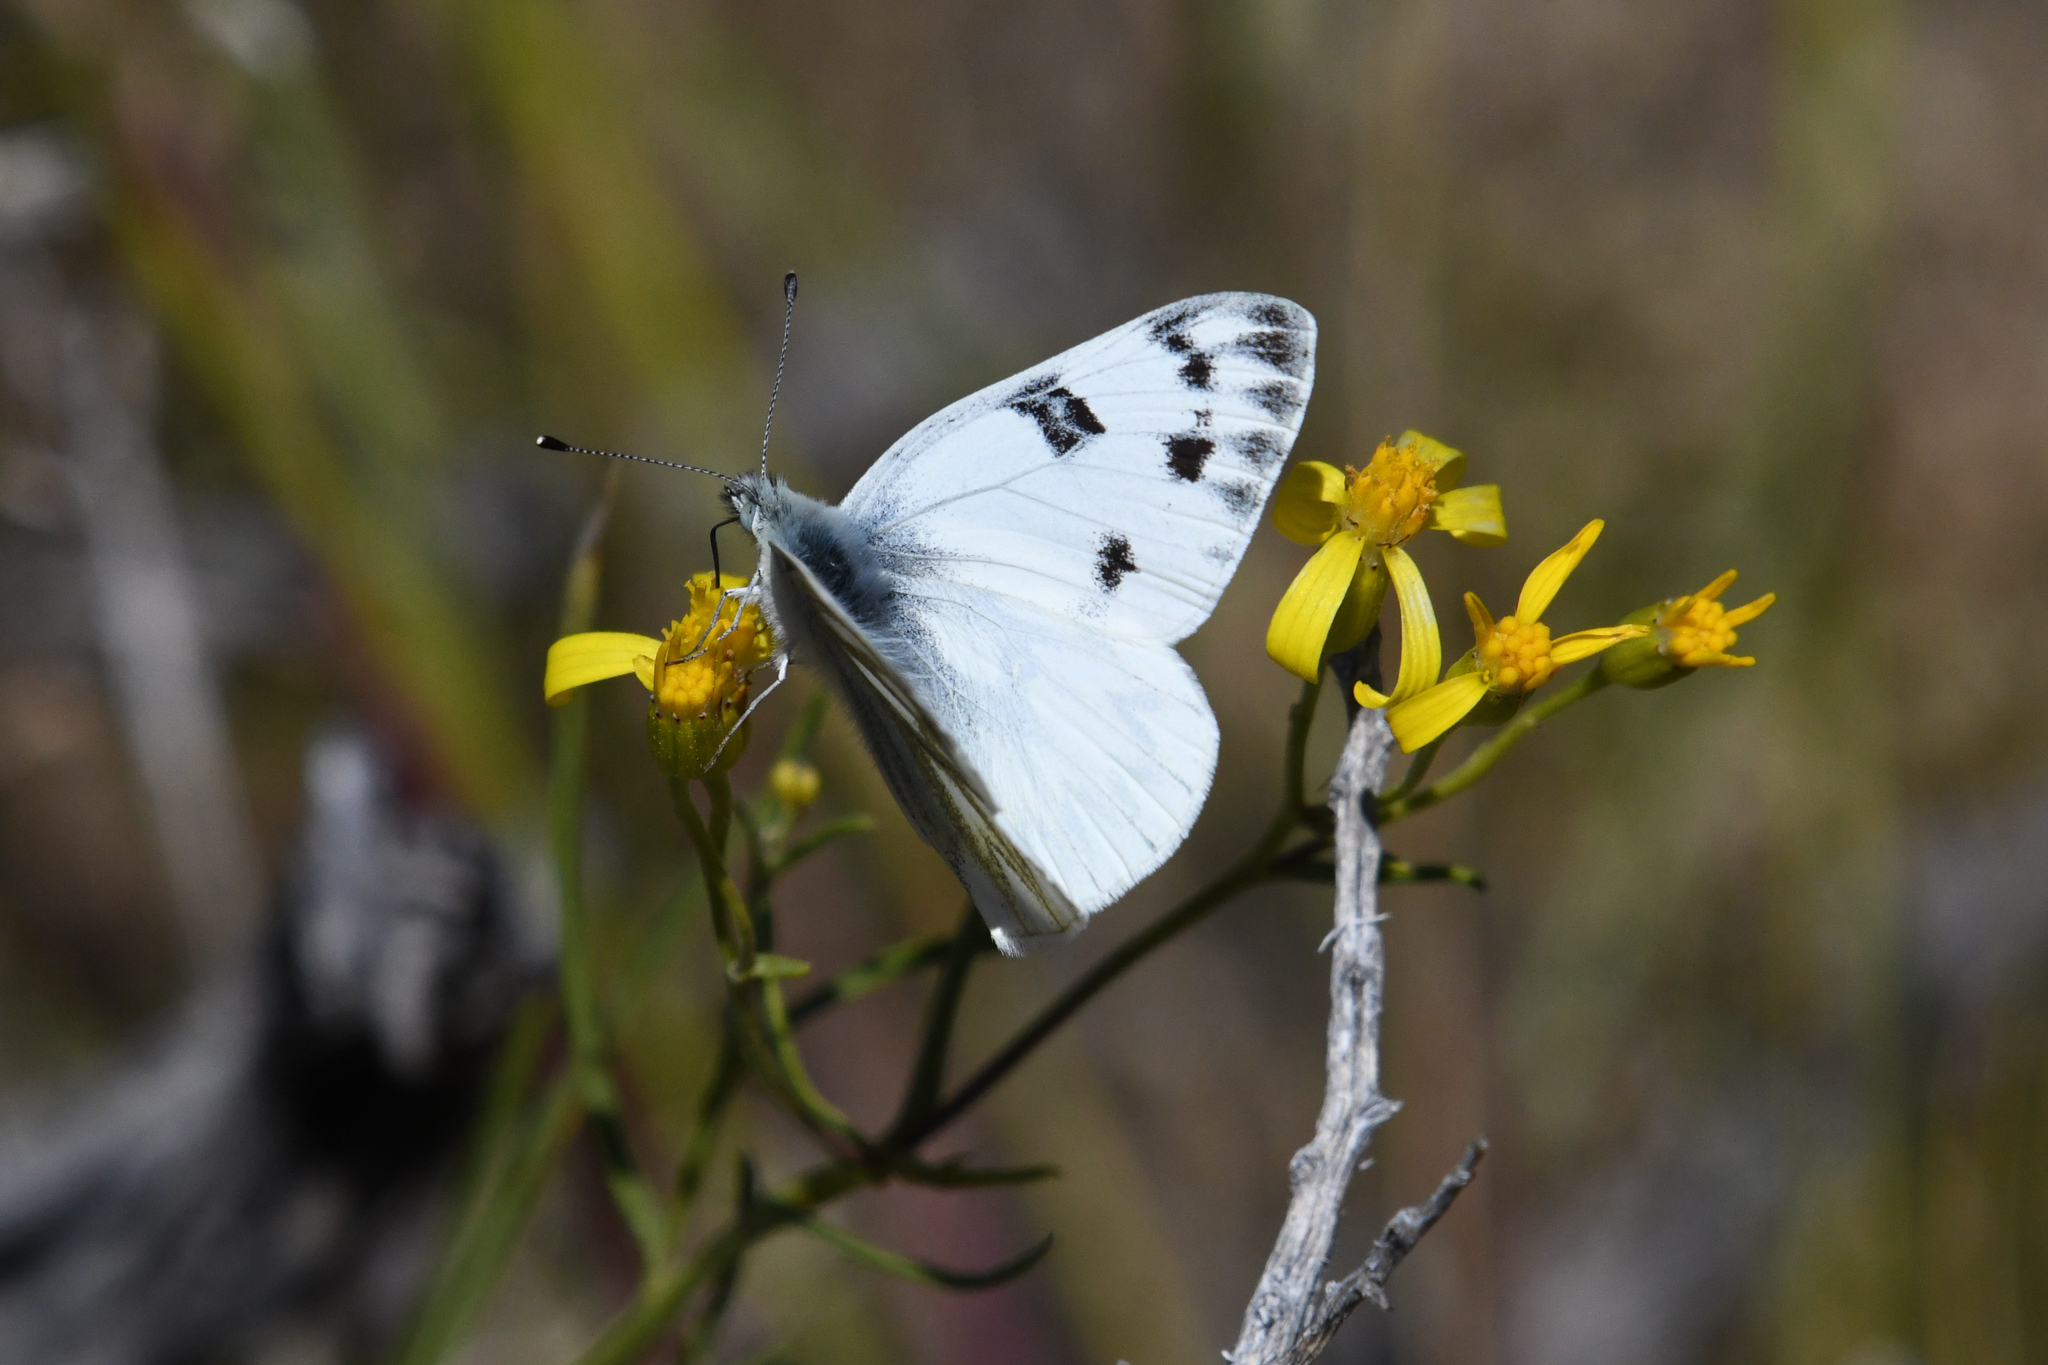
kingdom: Animalia
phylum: Arthropoda
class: Insecta
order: Lepidoptera
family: Pieridae
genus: Pontia
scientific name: Pontia occidentalis
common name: Western white
